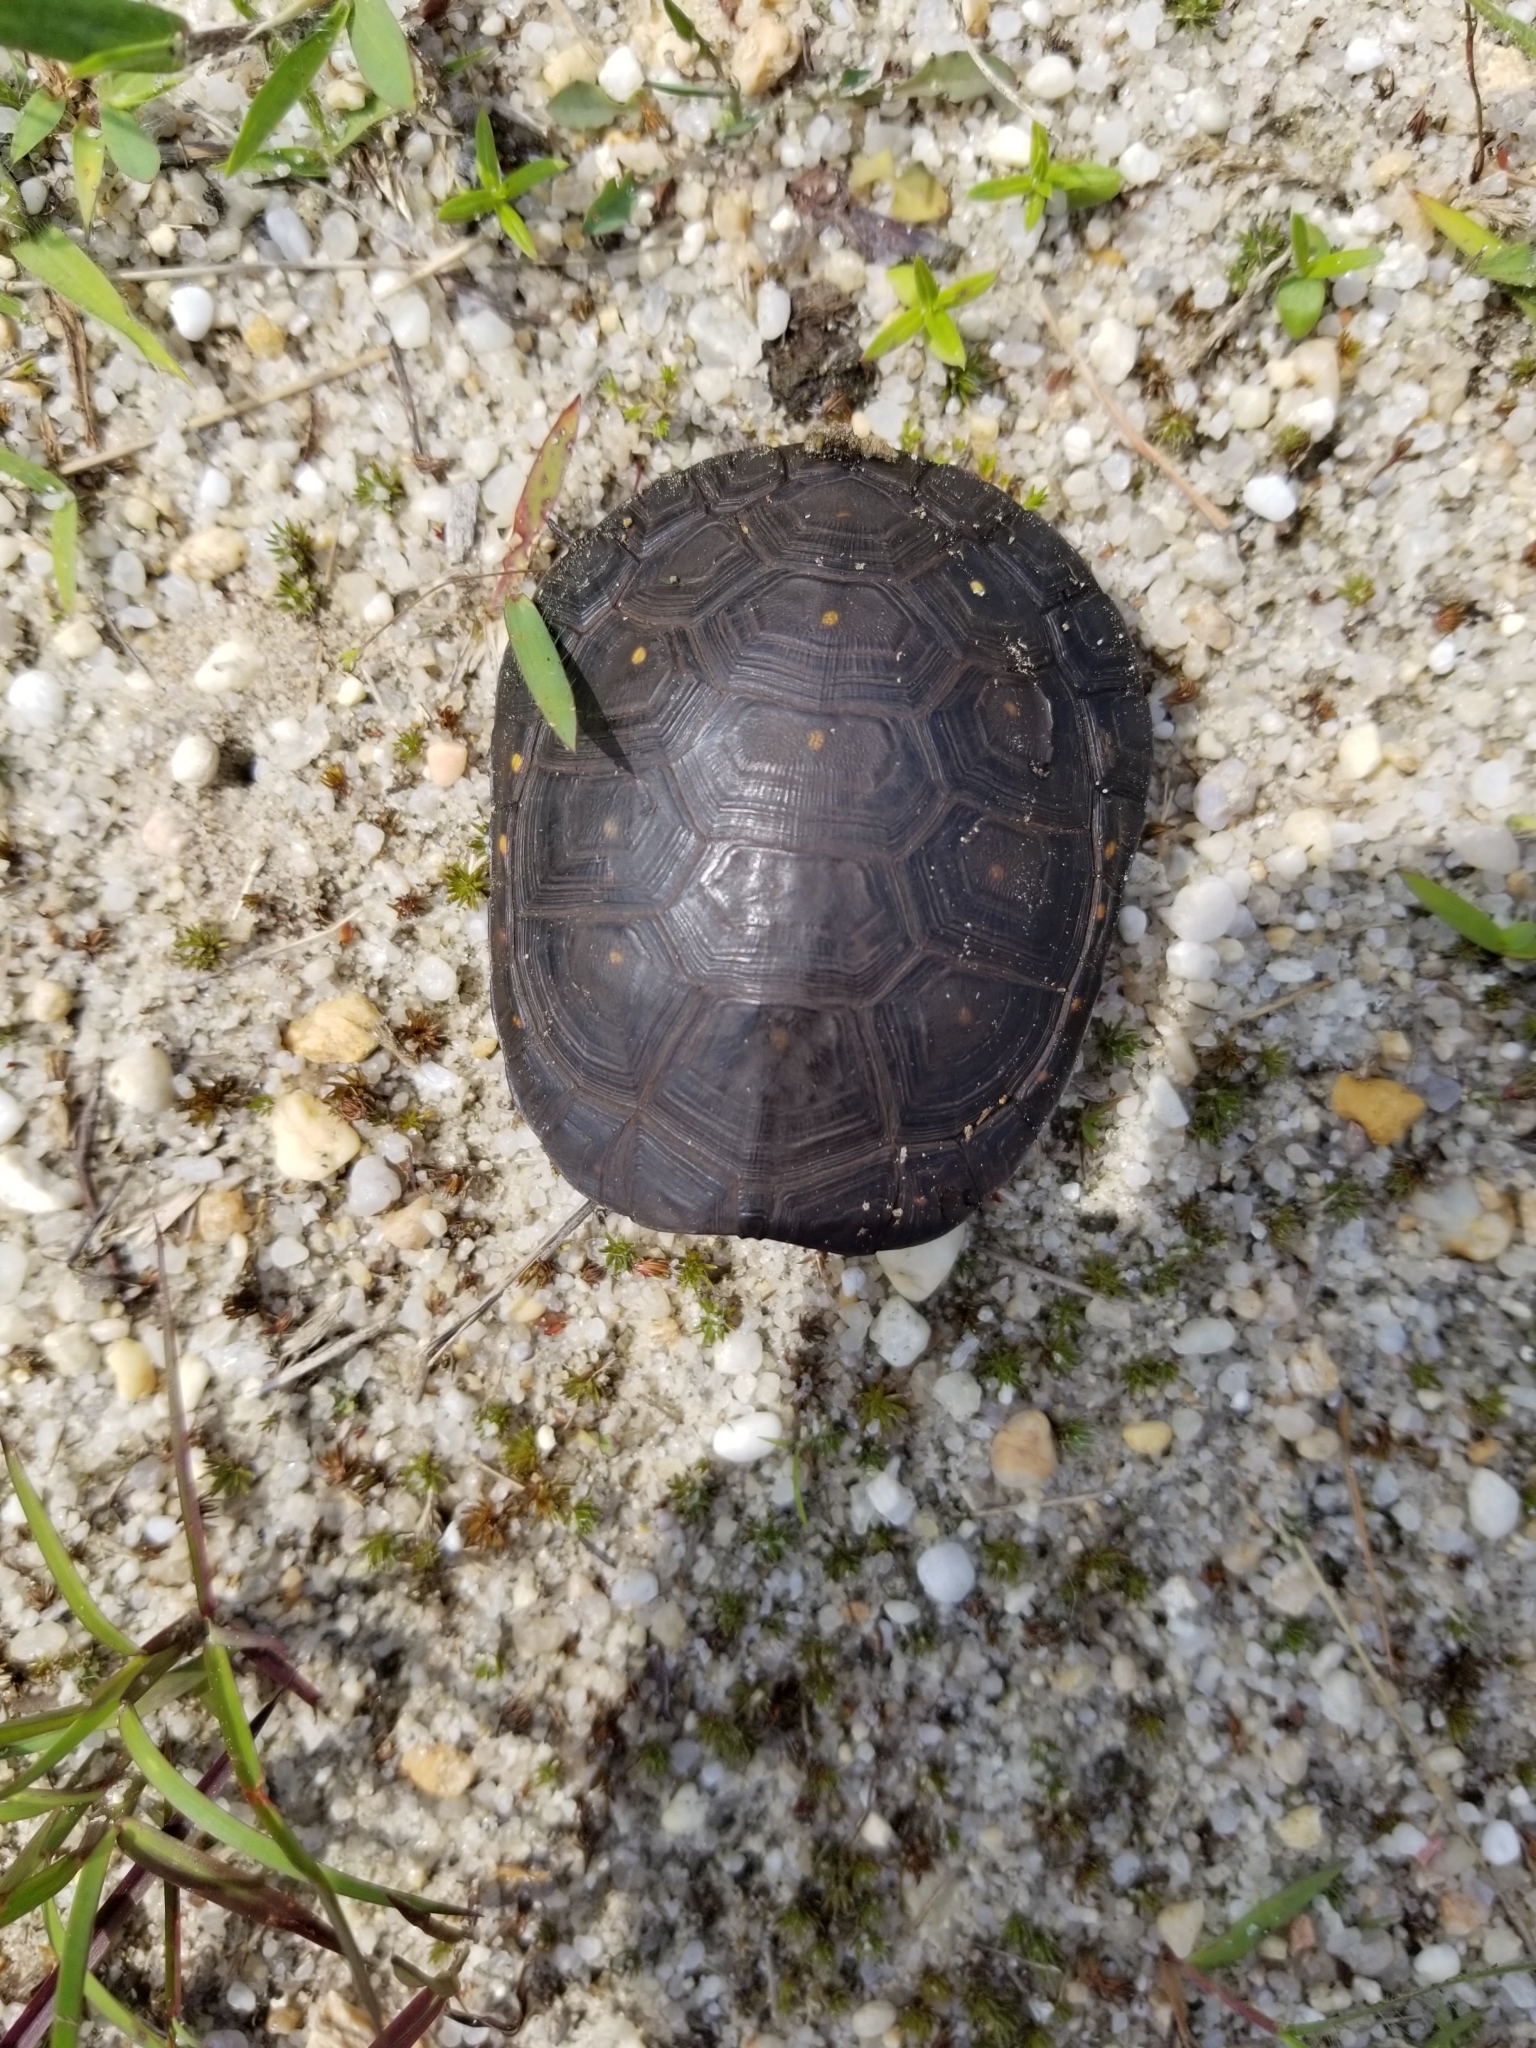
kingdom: Animalia
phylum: Chordata
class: Testudines
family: Emydidae
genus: Clemmys
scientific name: Clemmys guttata
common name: Spotted turtle
